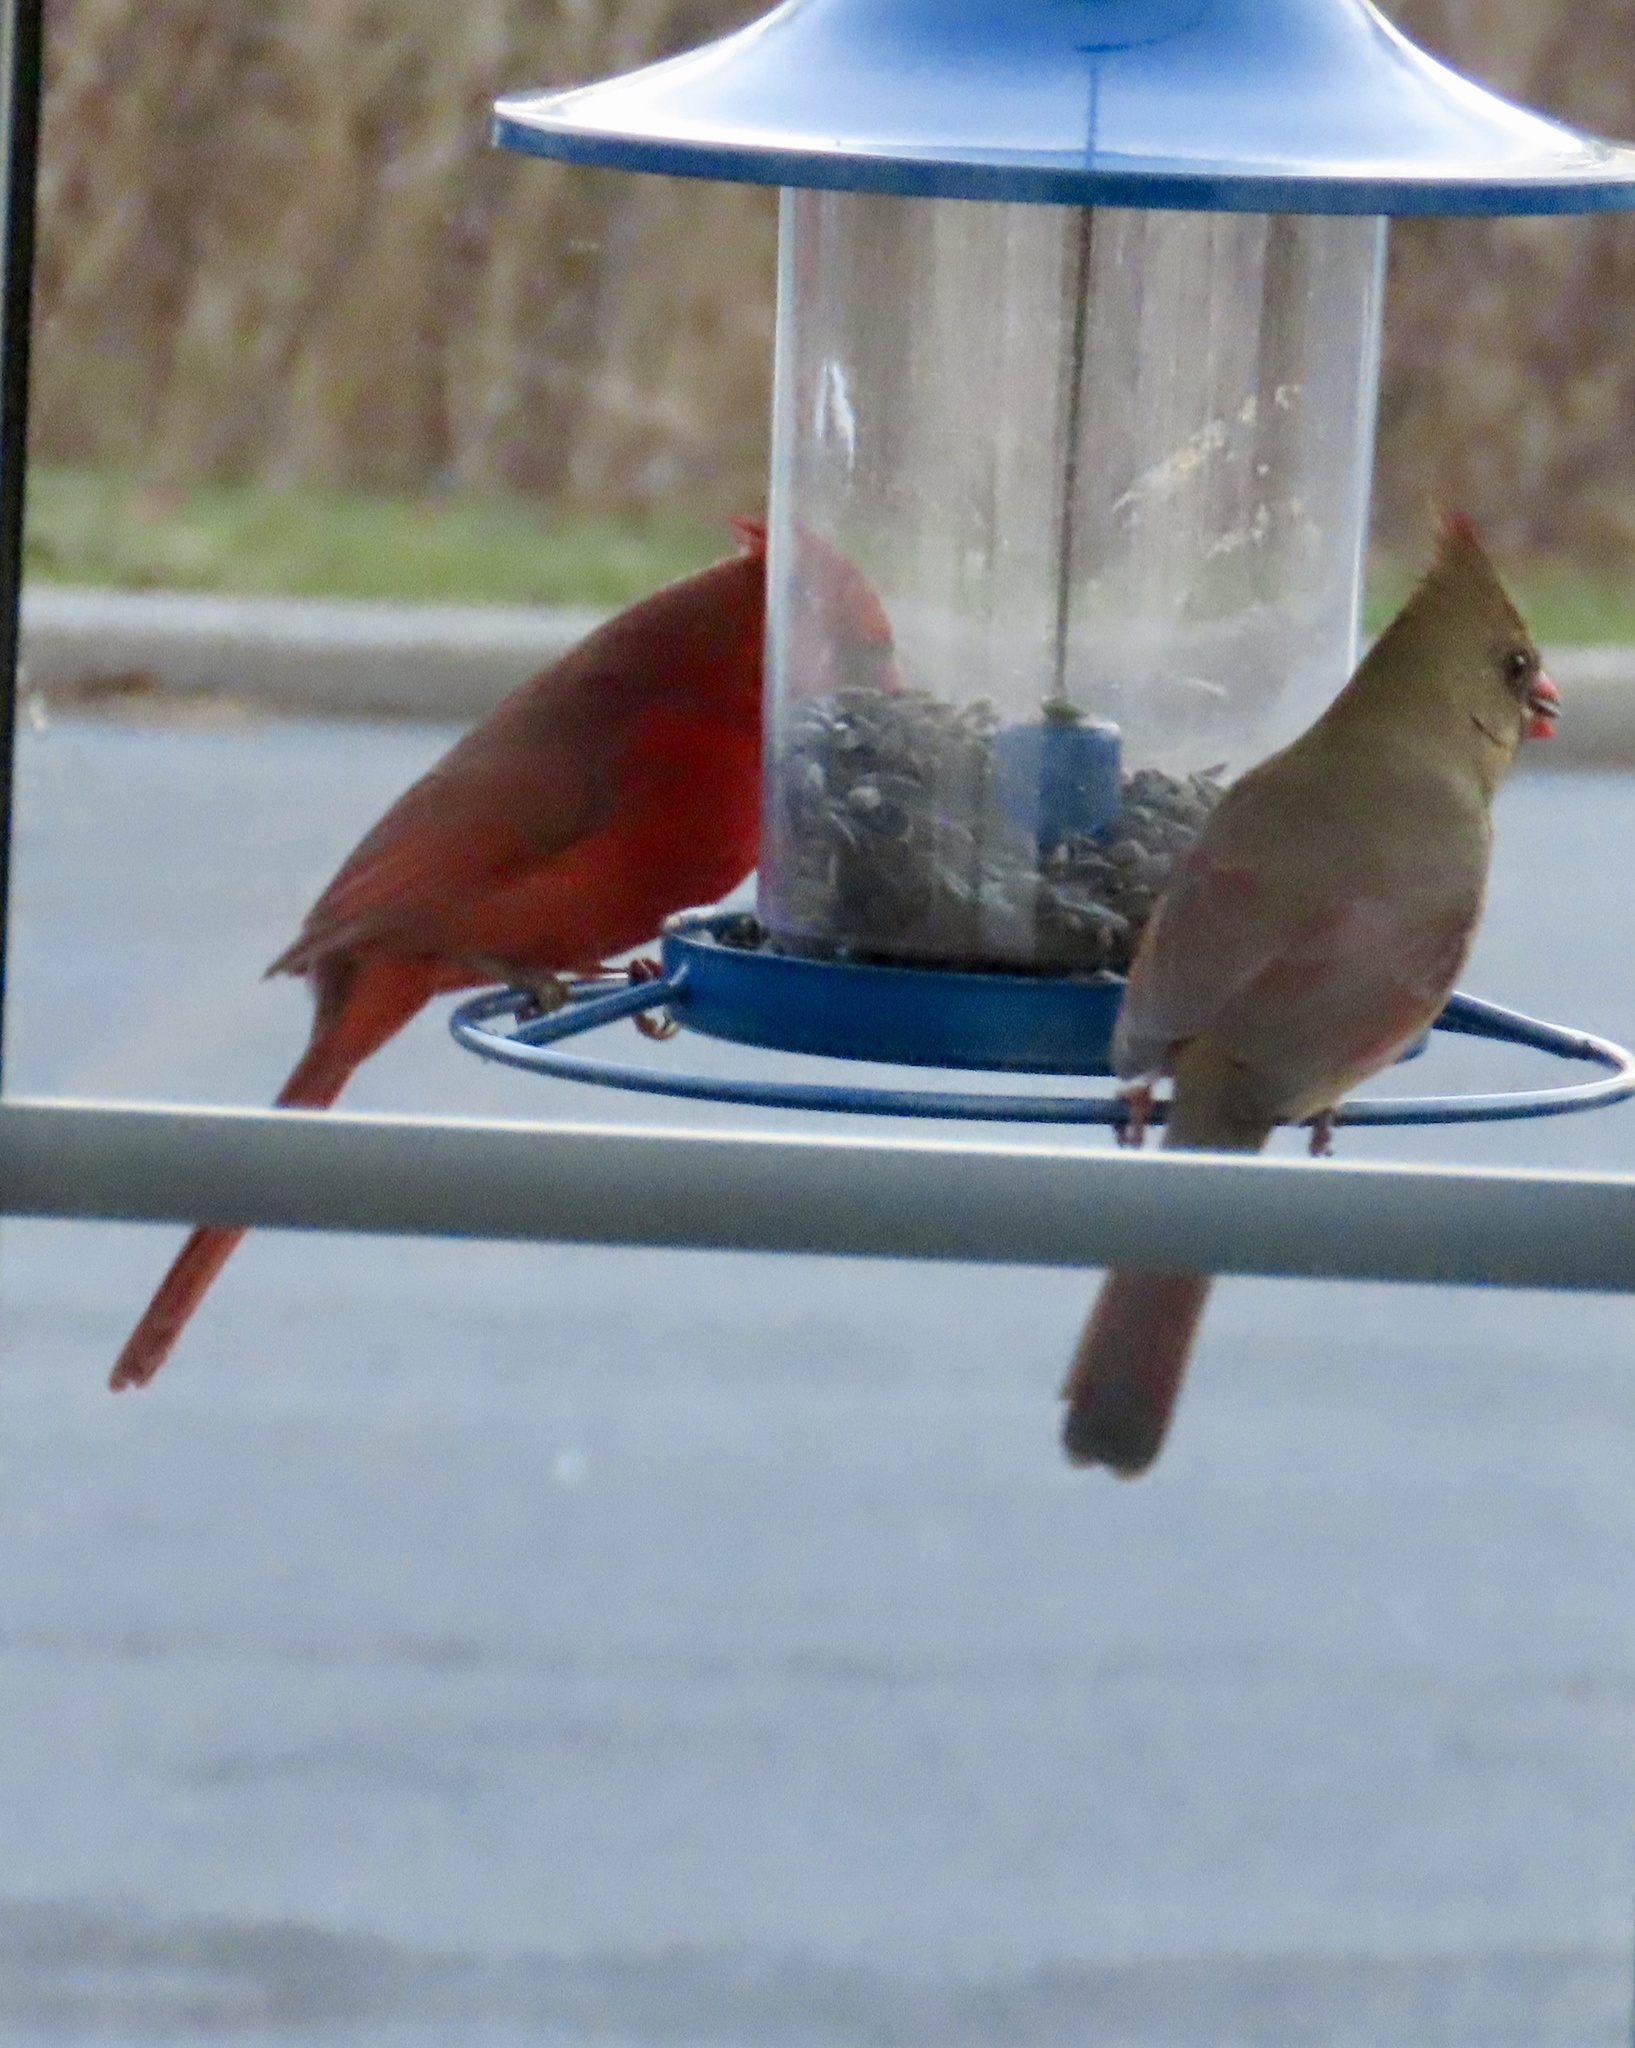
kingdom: Animalia
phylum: Chordata
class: Aves
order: Passeriformes
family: Cardinalidae
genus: Cardinalis
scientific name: Cardinalis cardinalis
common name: Northern cardinal
